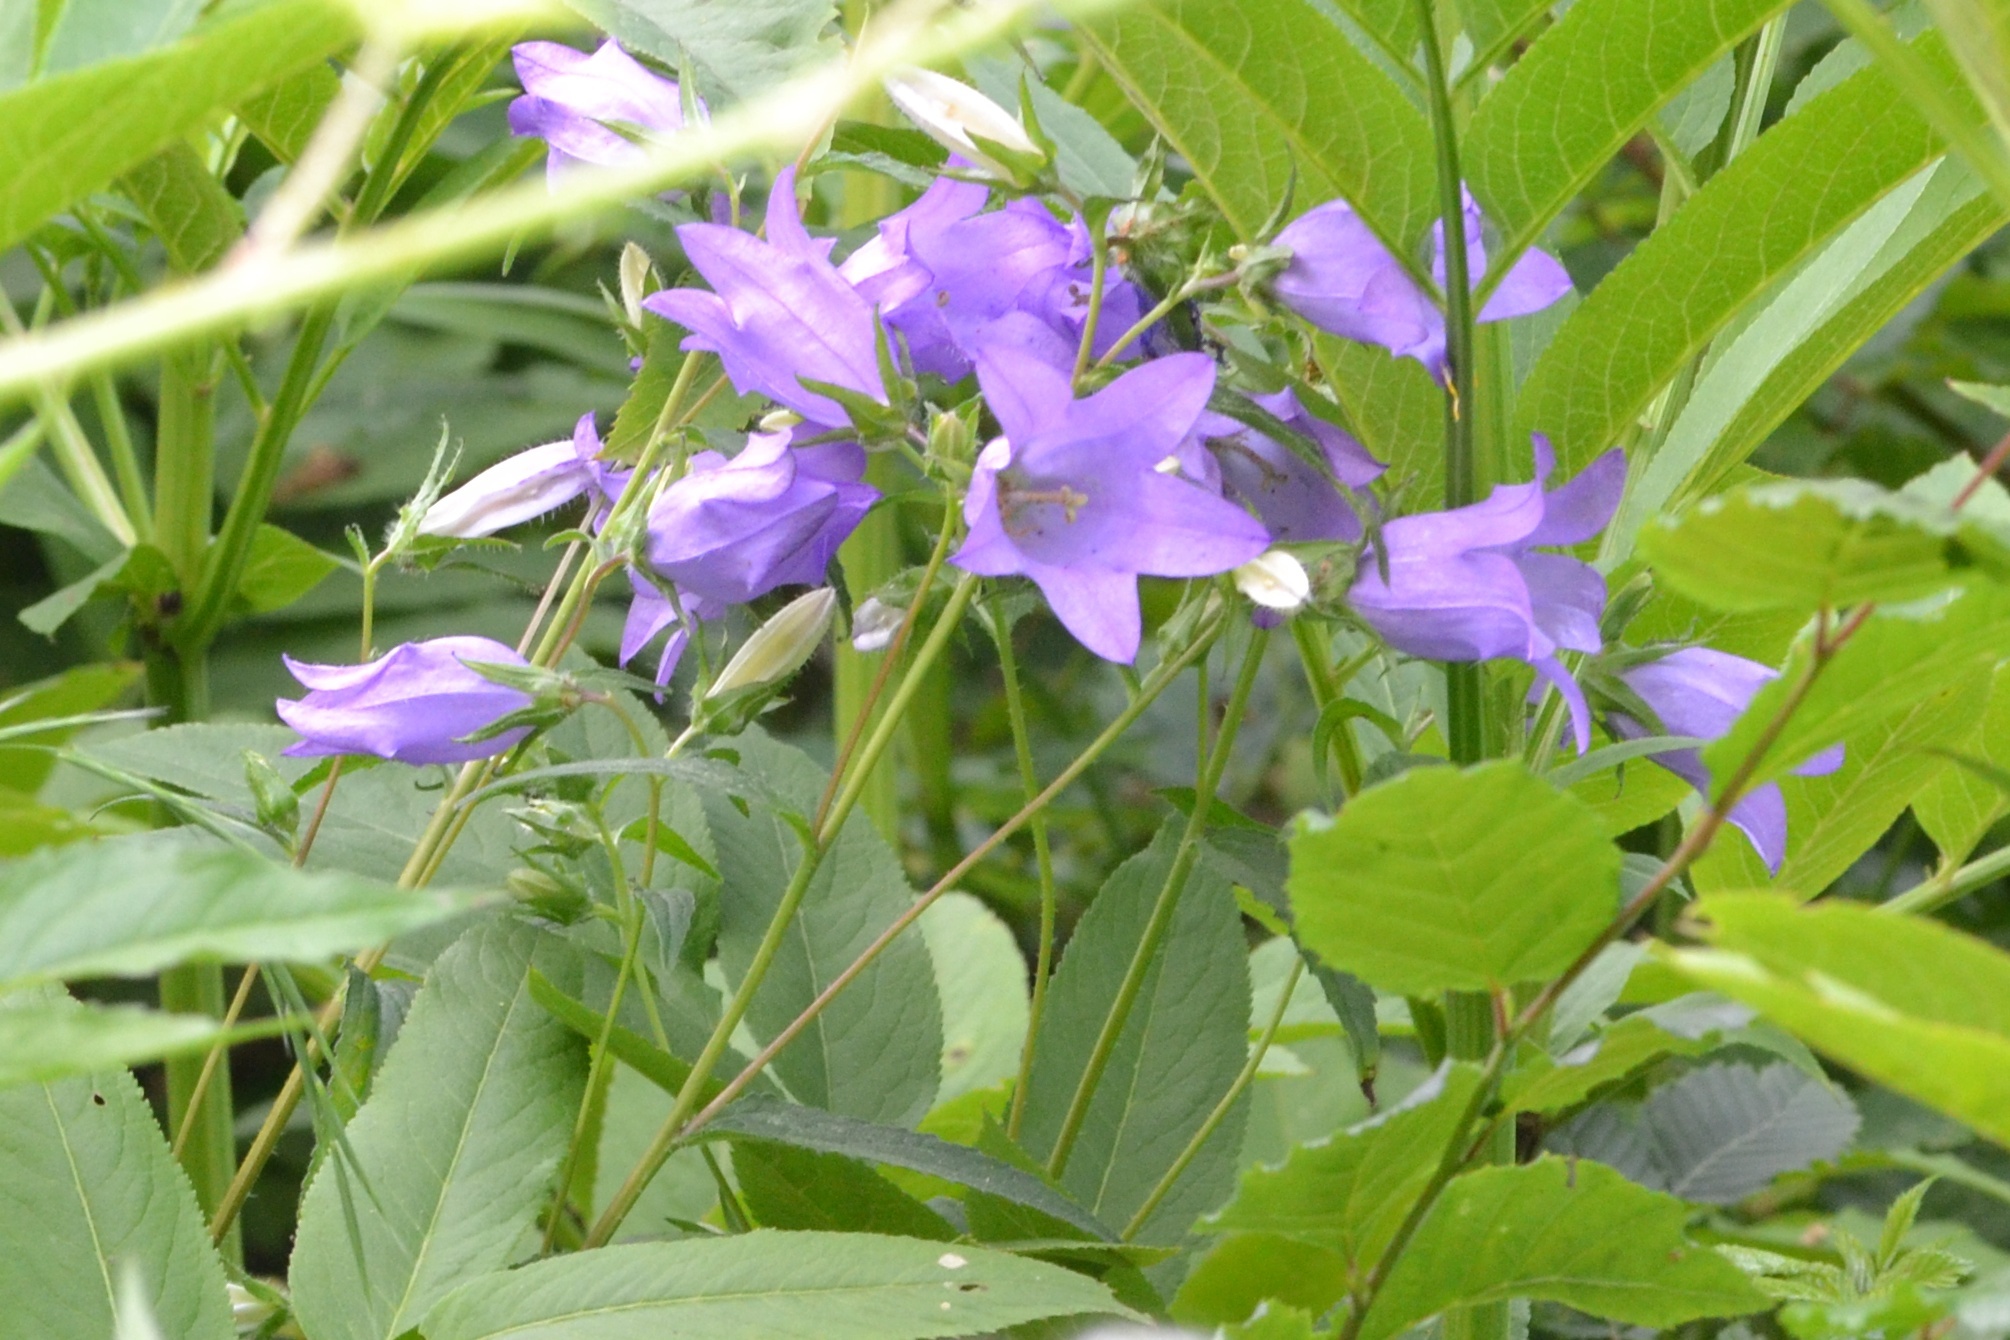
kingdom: Plantae
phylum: Tracheophyta
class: Magnoliopsida
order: Asterales
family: Campanulaceae
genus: Campanula
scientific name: Campanula trachelium
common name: Nettle-leaved bellflower
